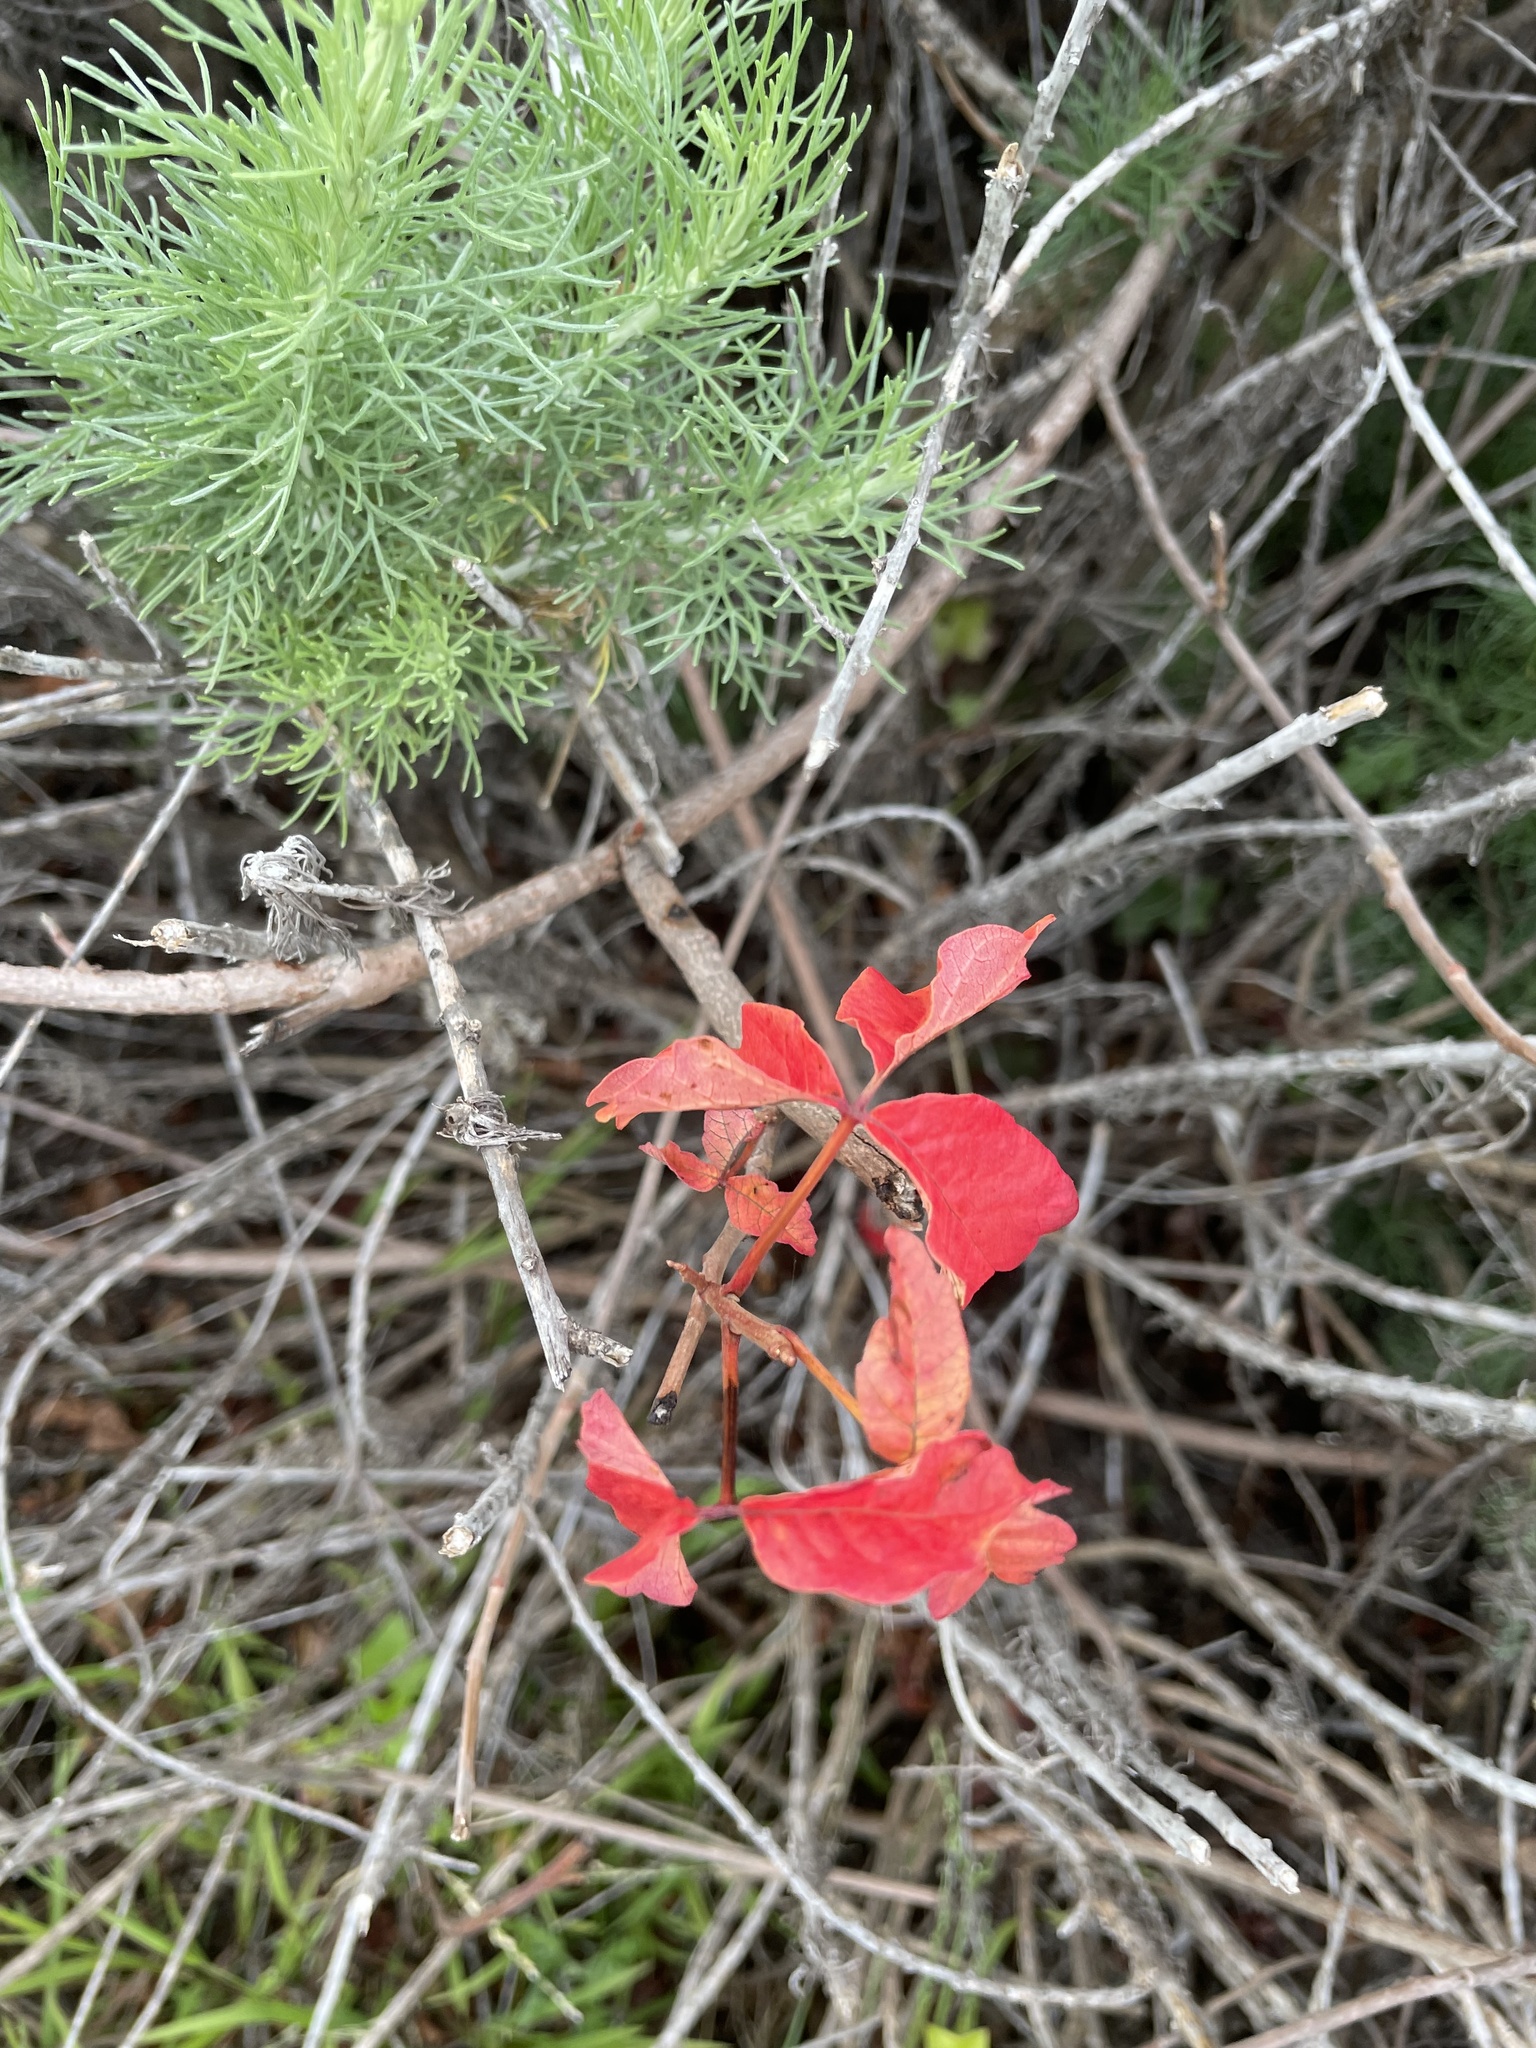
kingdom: Plantae
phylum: Tracheophyta
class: Magnoliopsida
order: Sapindales
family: Anacardiaceae
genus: Toxicodendron
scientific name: Toxicodendron diversilobum
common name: Pacific poison-oak
